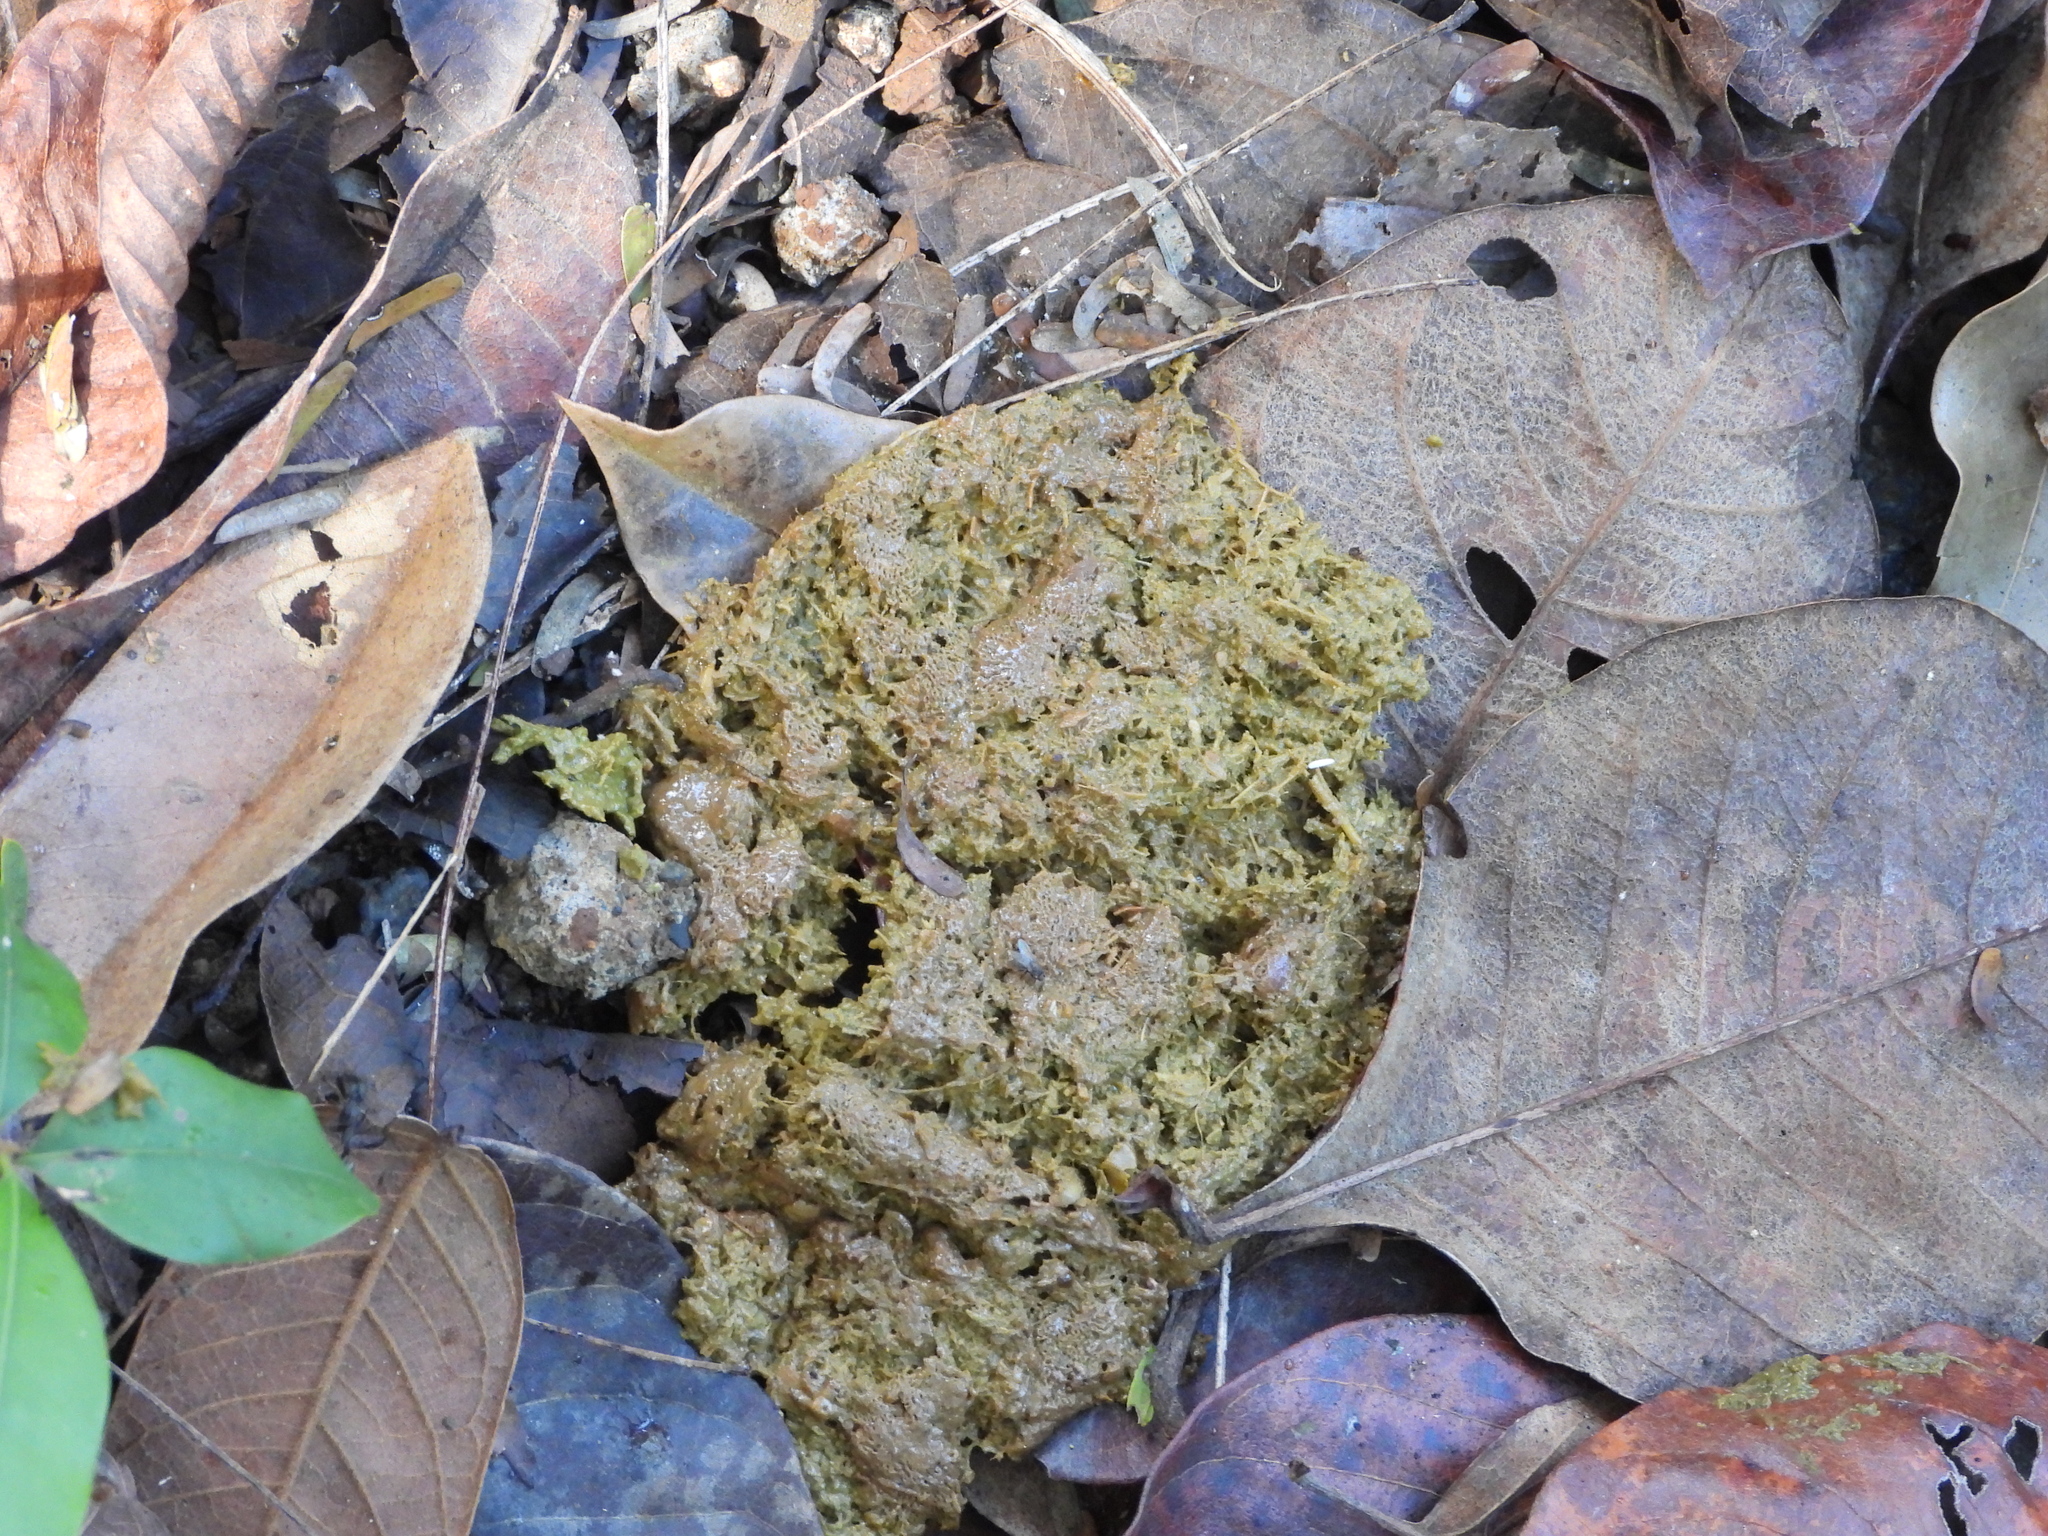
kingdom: Animalia
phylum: Chordata
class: Mammalia
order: Primates
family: Atelidae
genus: Alouatta
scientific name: Alouatta palliata
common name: Mantled howler
